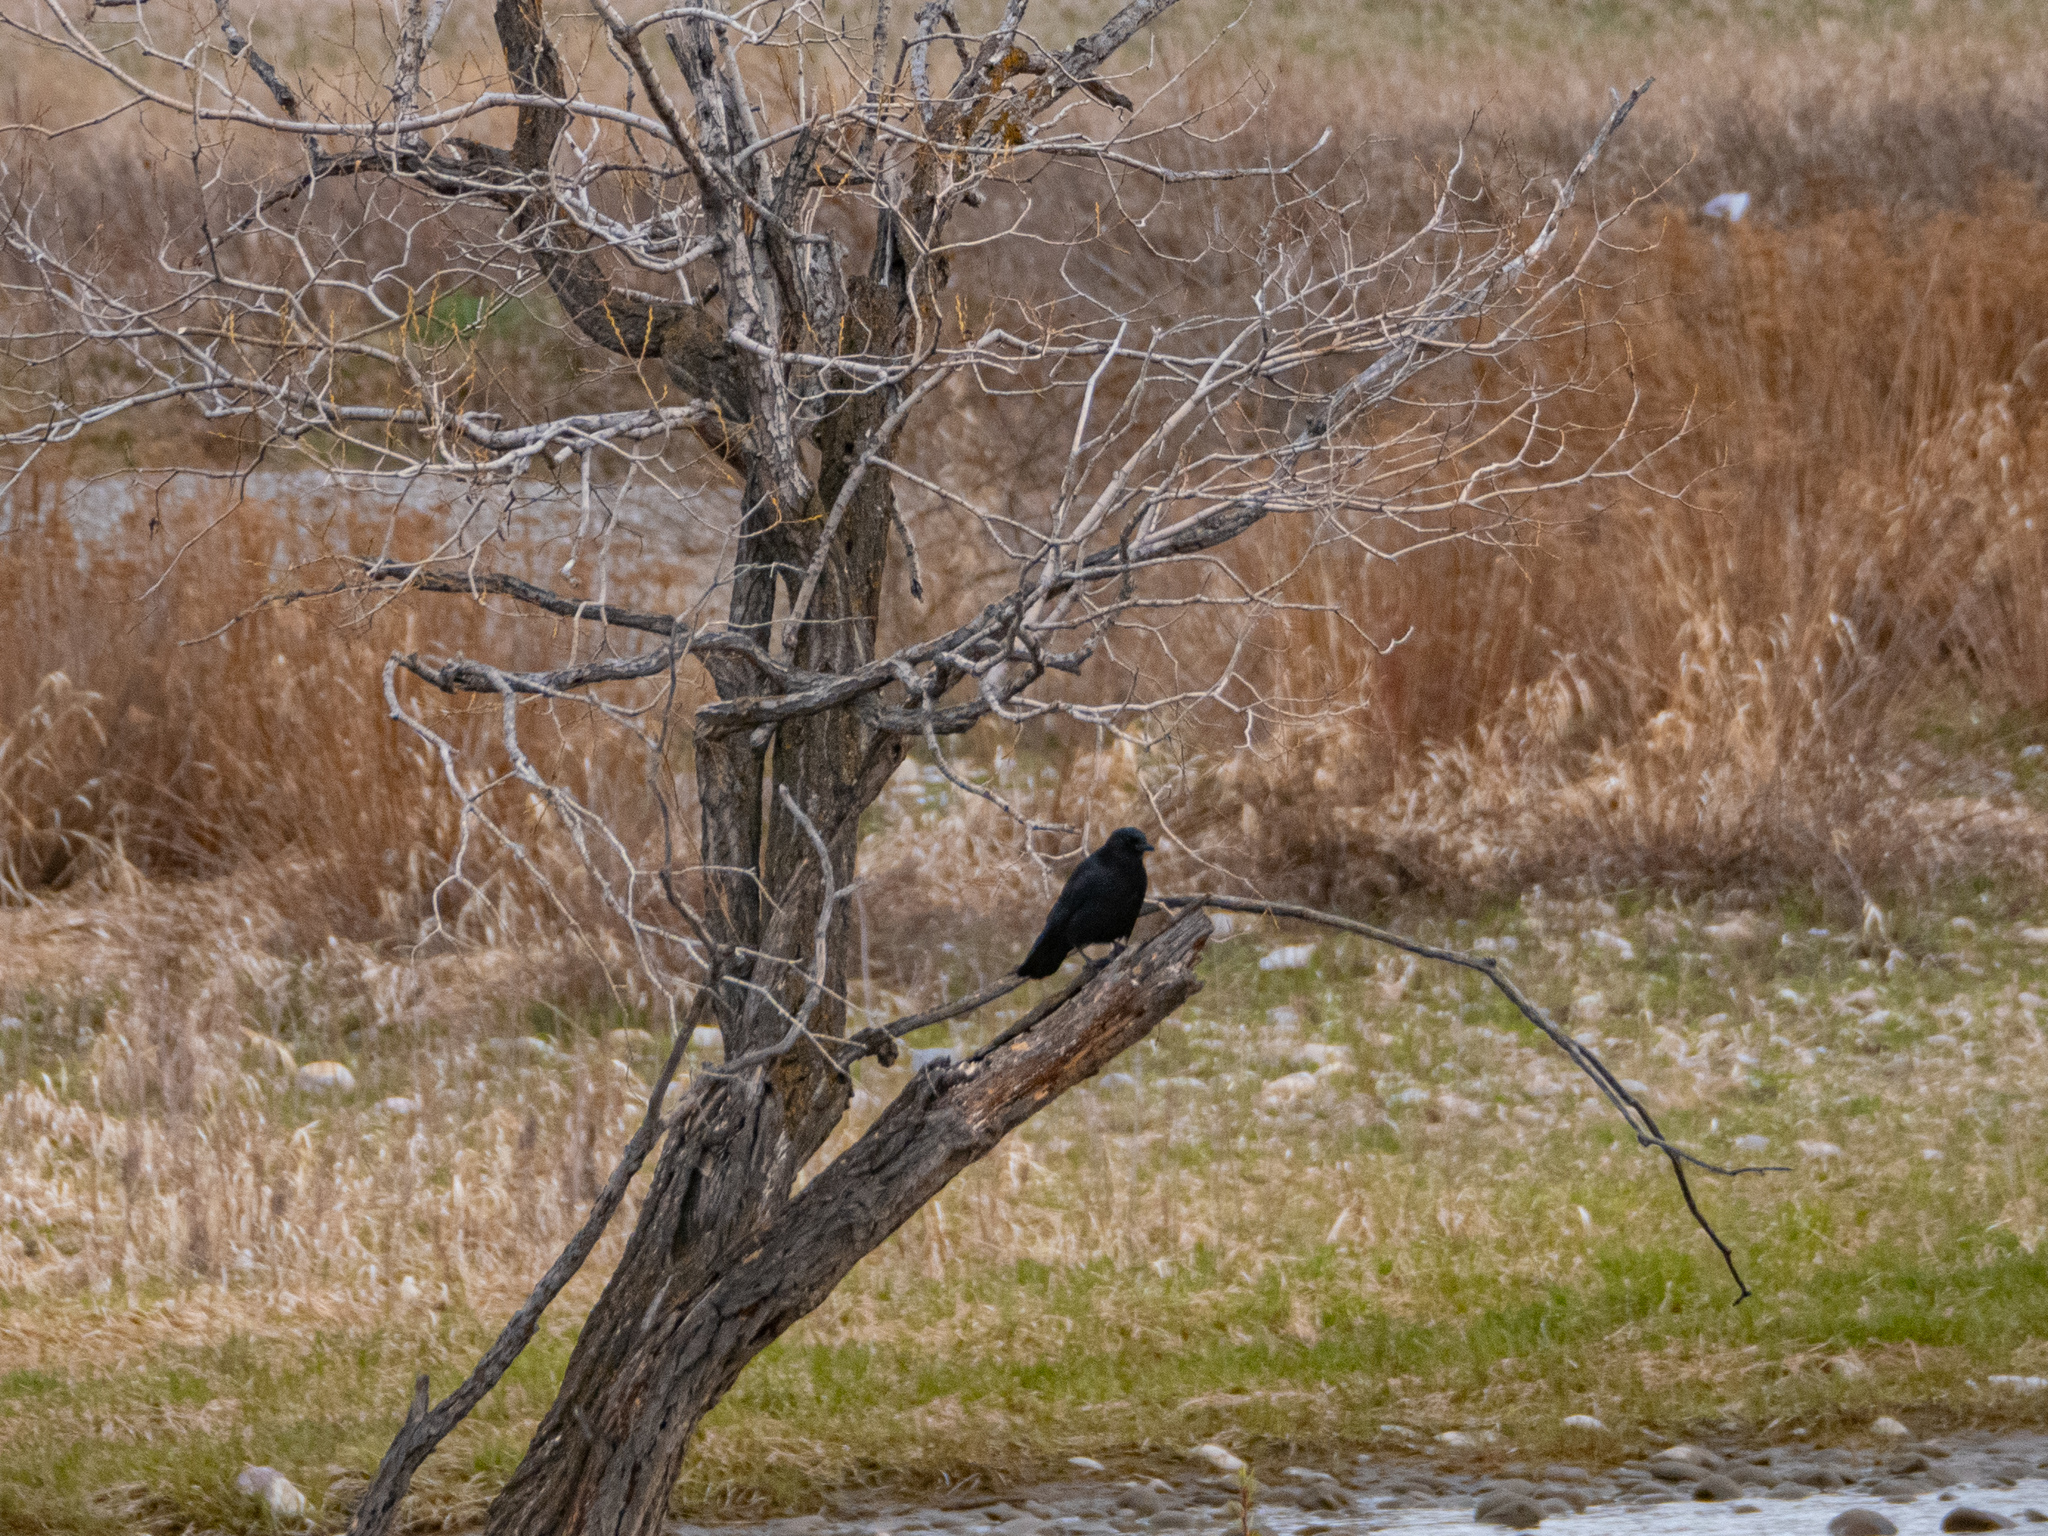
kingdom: Animalia
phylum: Chordata
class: Aves
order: Passeriformes
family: Corvidae
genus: Corvus
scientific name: Corvus brachyrhynchos
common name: American crow
